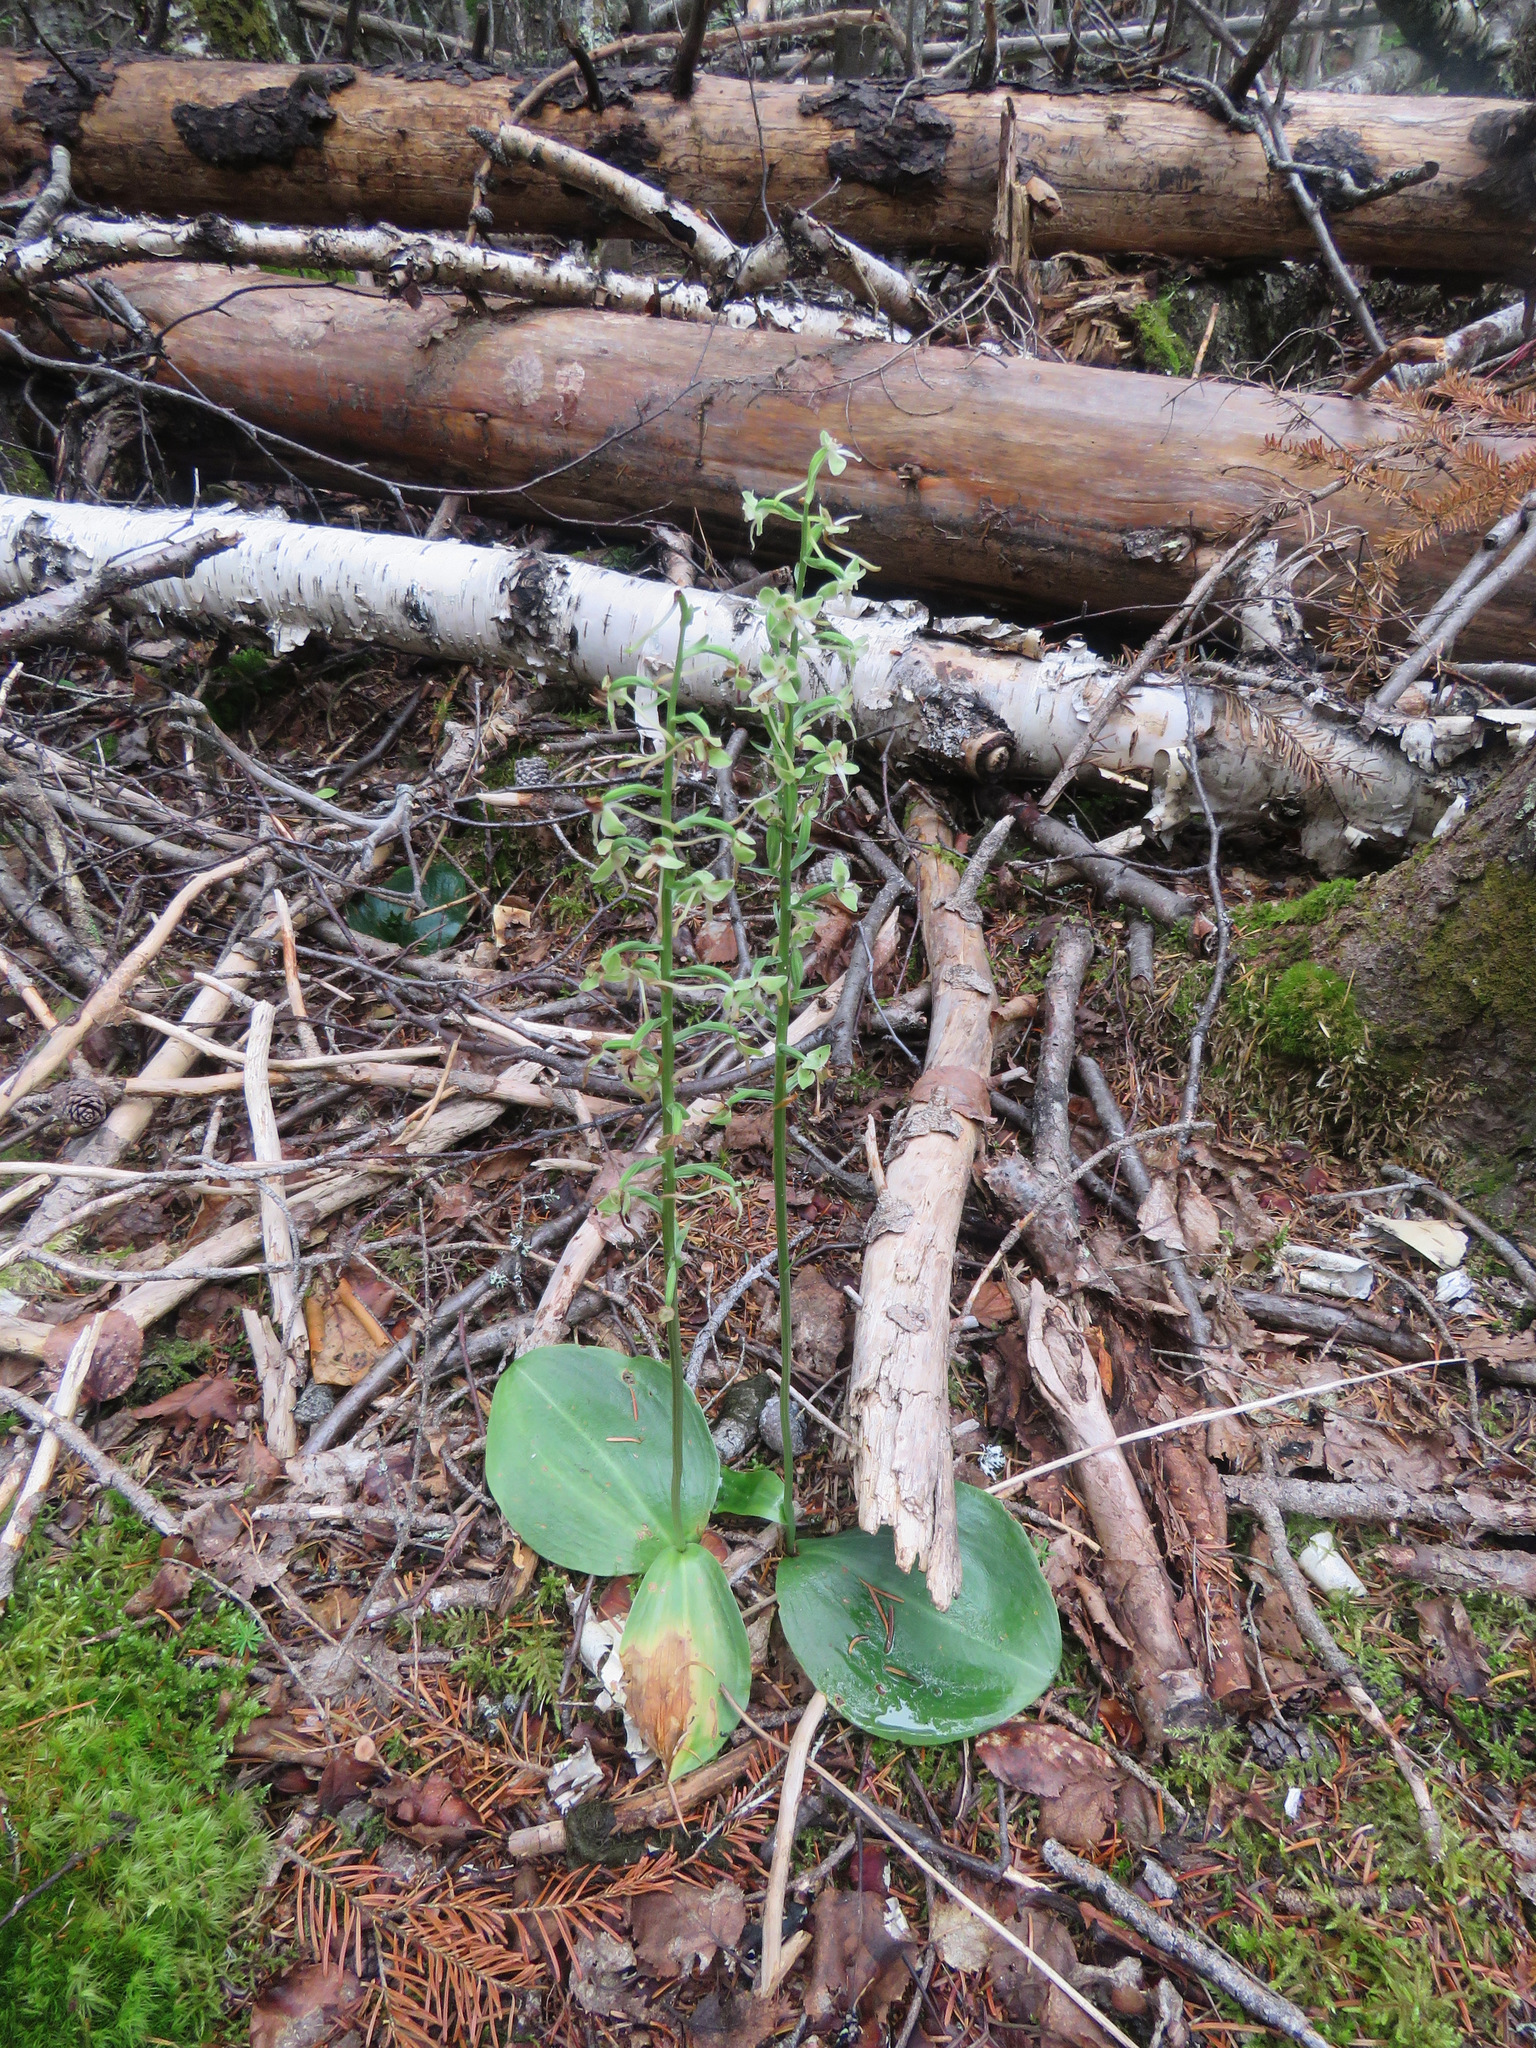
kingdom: Plantae
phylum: Tracheophyta
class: Liliopsida
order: Asparagales
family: Orchidaceae
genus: Platanthera
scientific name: Platanthera orbiculata
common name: Large round-leaved orchid
